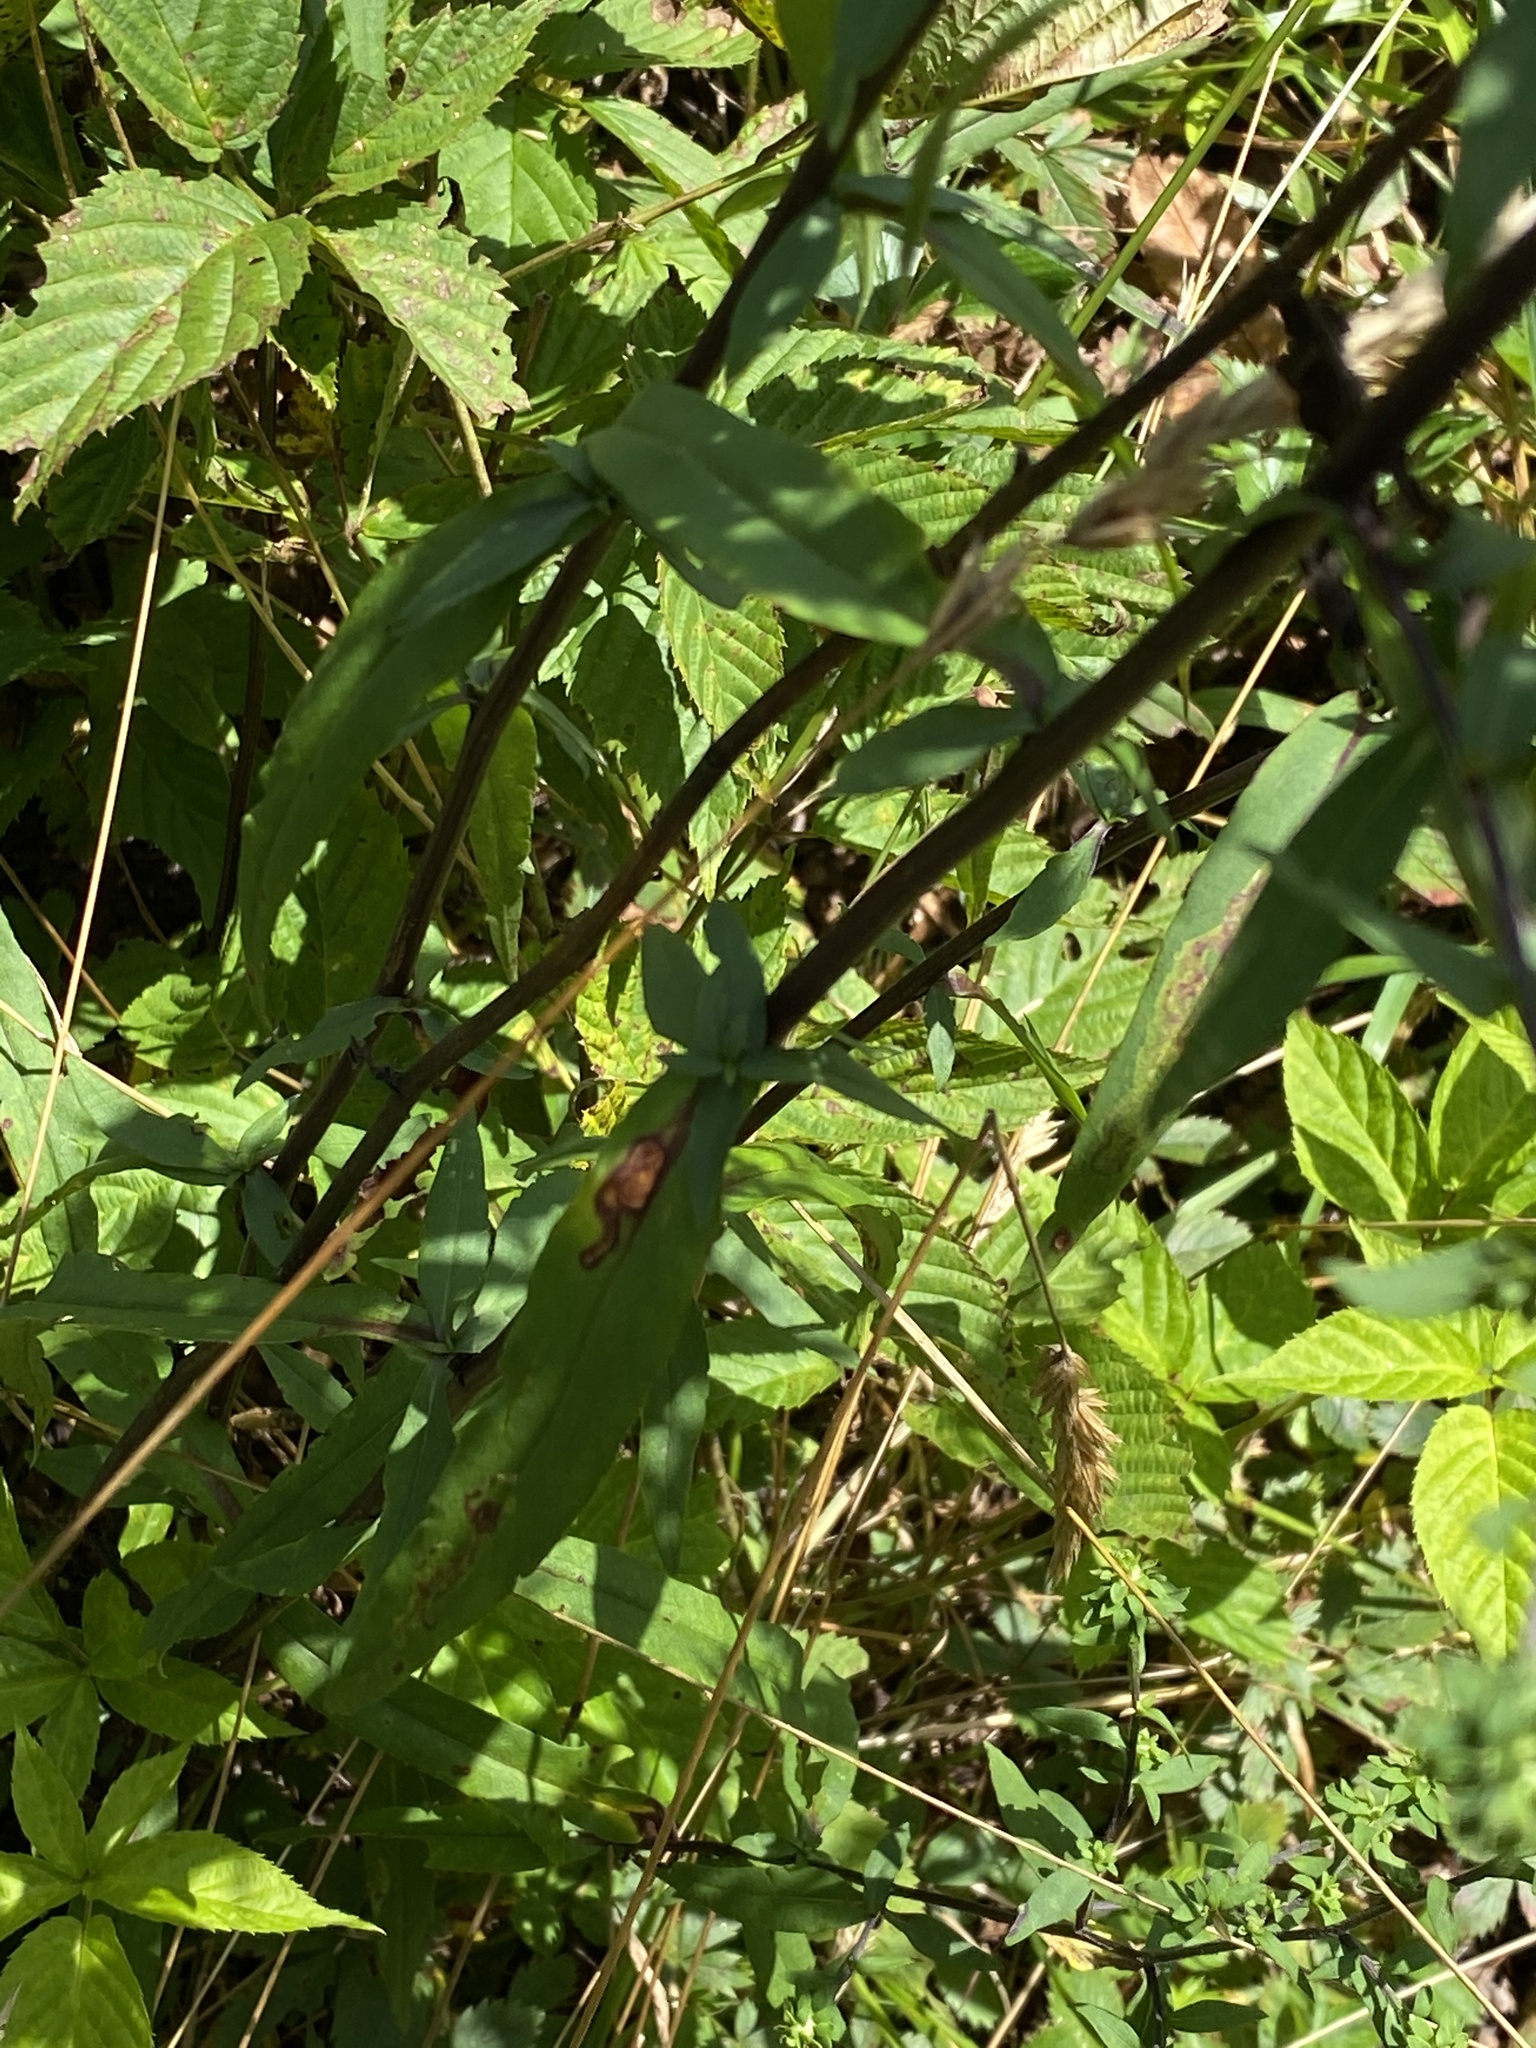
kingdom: Plantae
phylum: Tracheophyta
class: Magnoliopsida
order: Asterales
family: Asteraceae
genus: Symphyotrichum
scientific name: Symphyotrichum retroflexum
